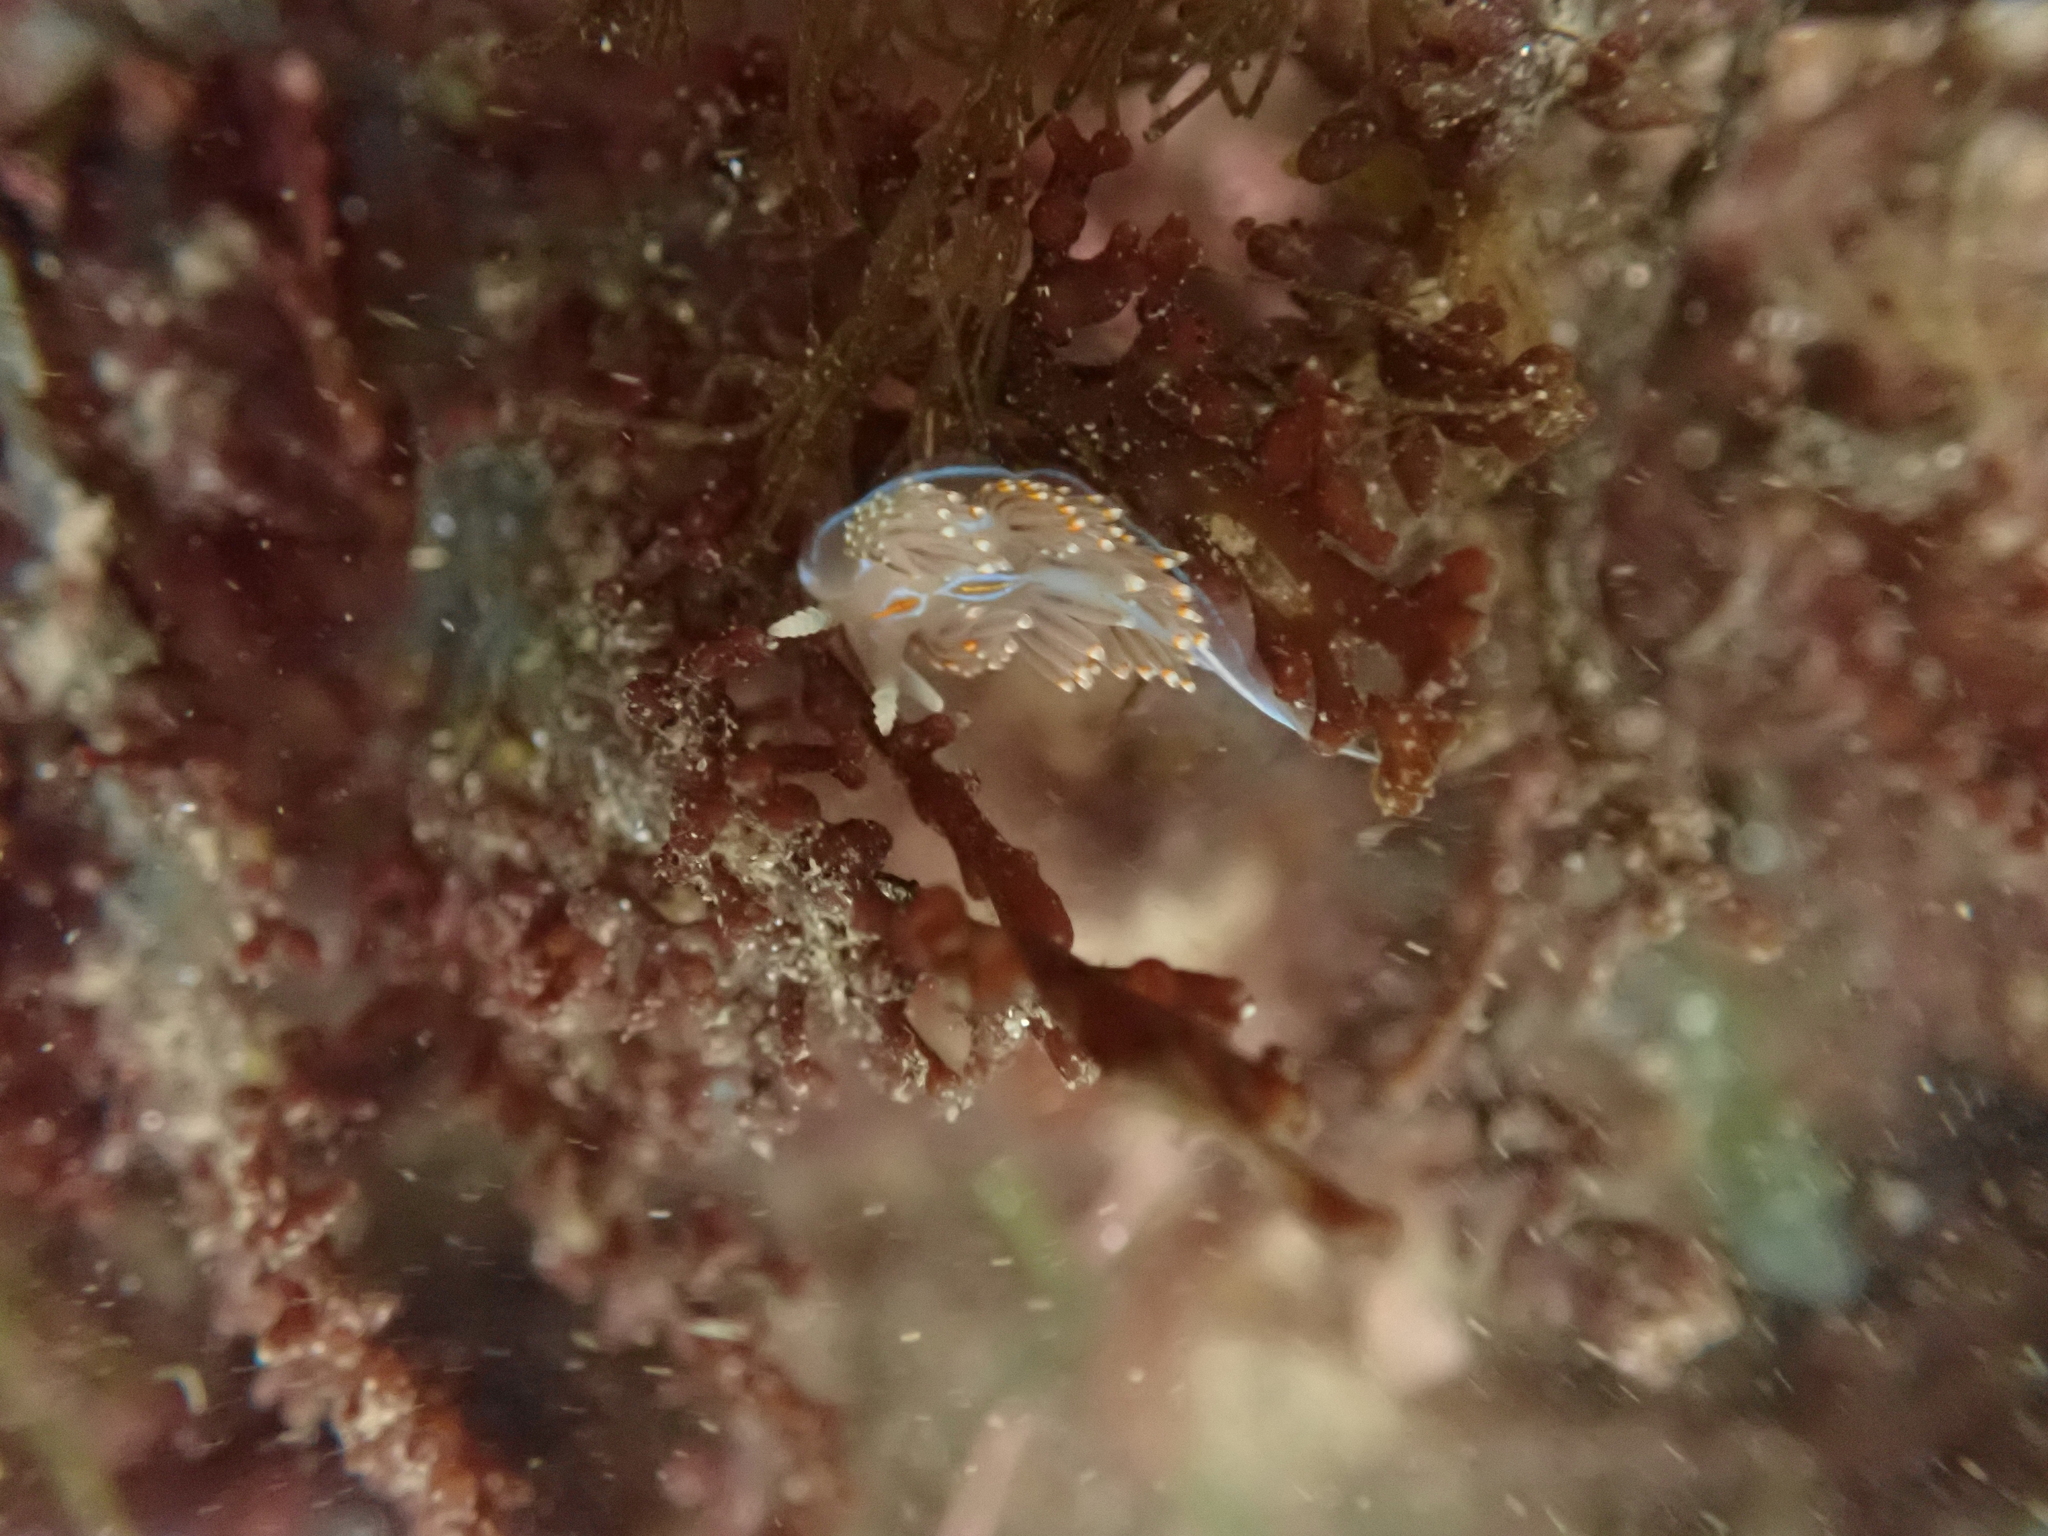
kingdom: Animalia
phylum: Mollusca
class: Gastropoda
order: Nudibranchia
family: Myrrhinidae
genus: Hermissenda
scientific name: Hermissenda opalescens
